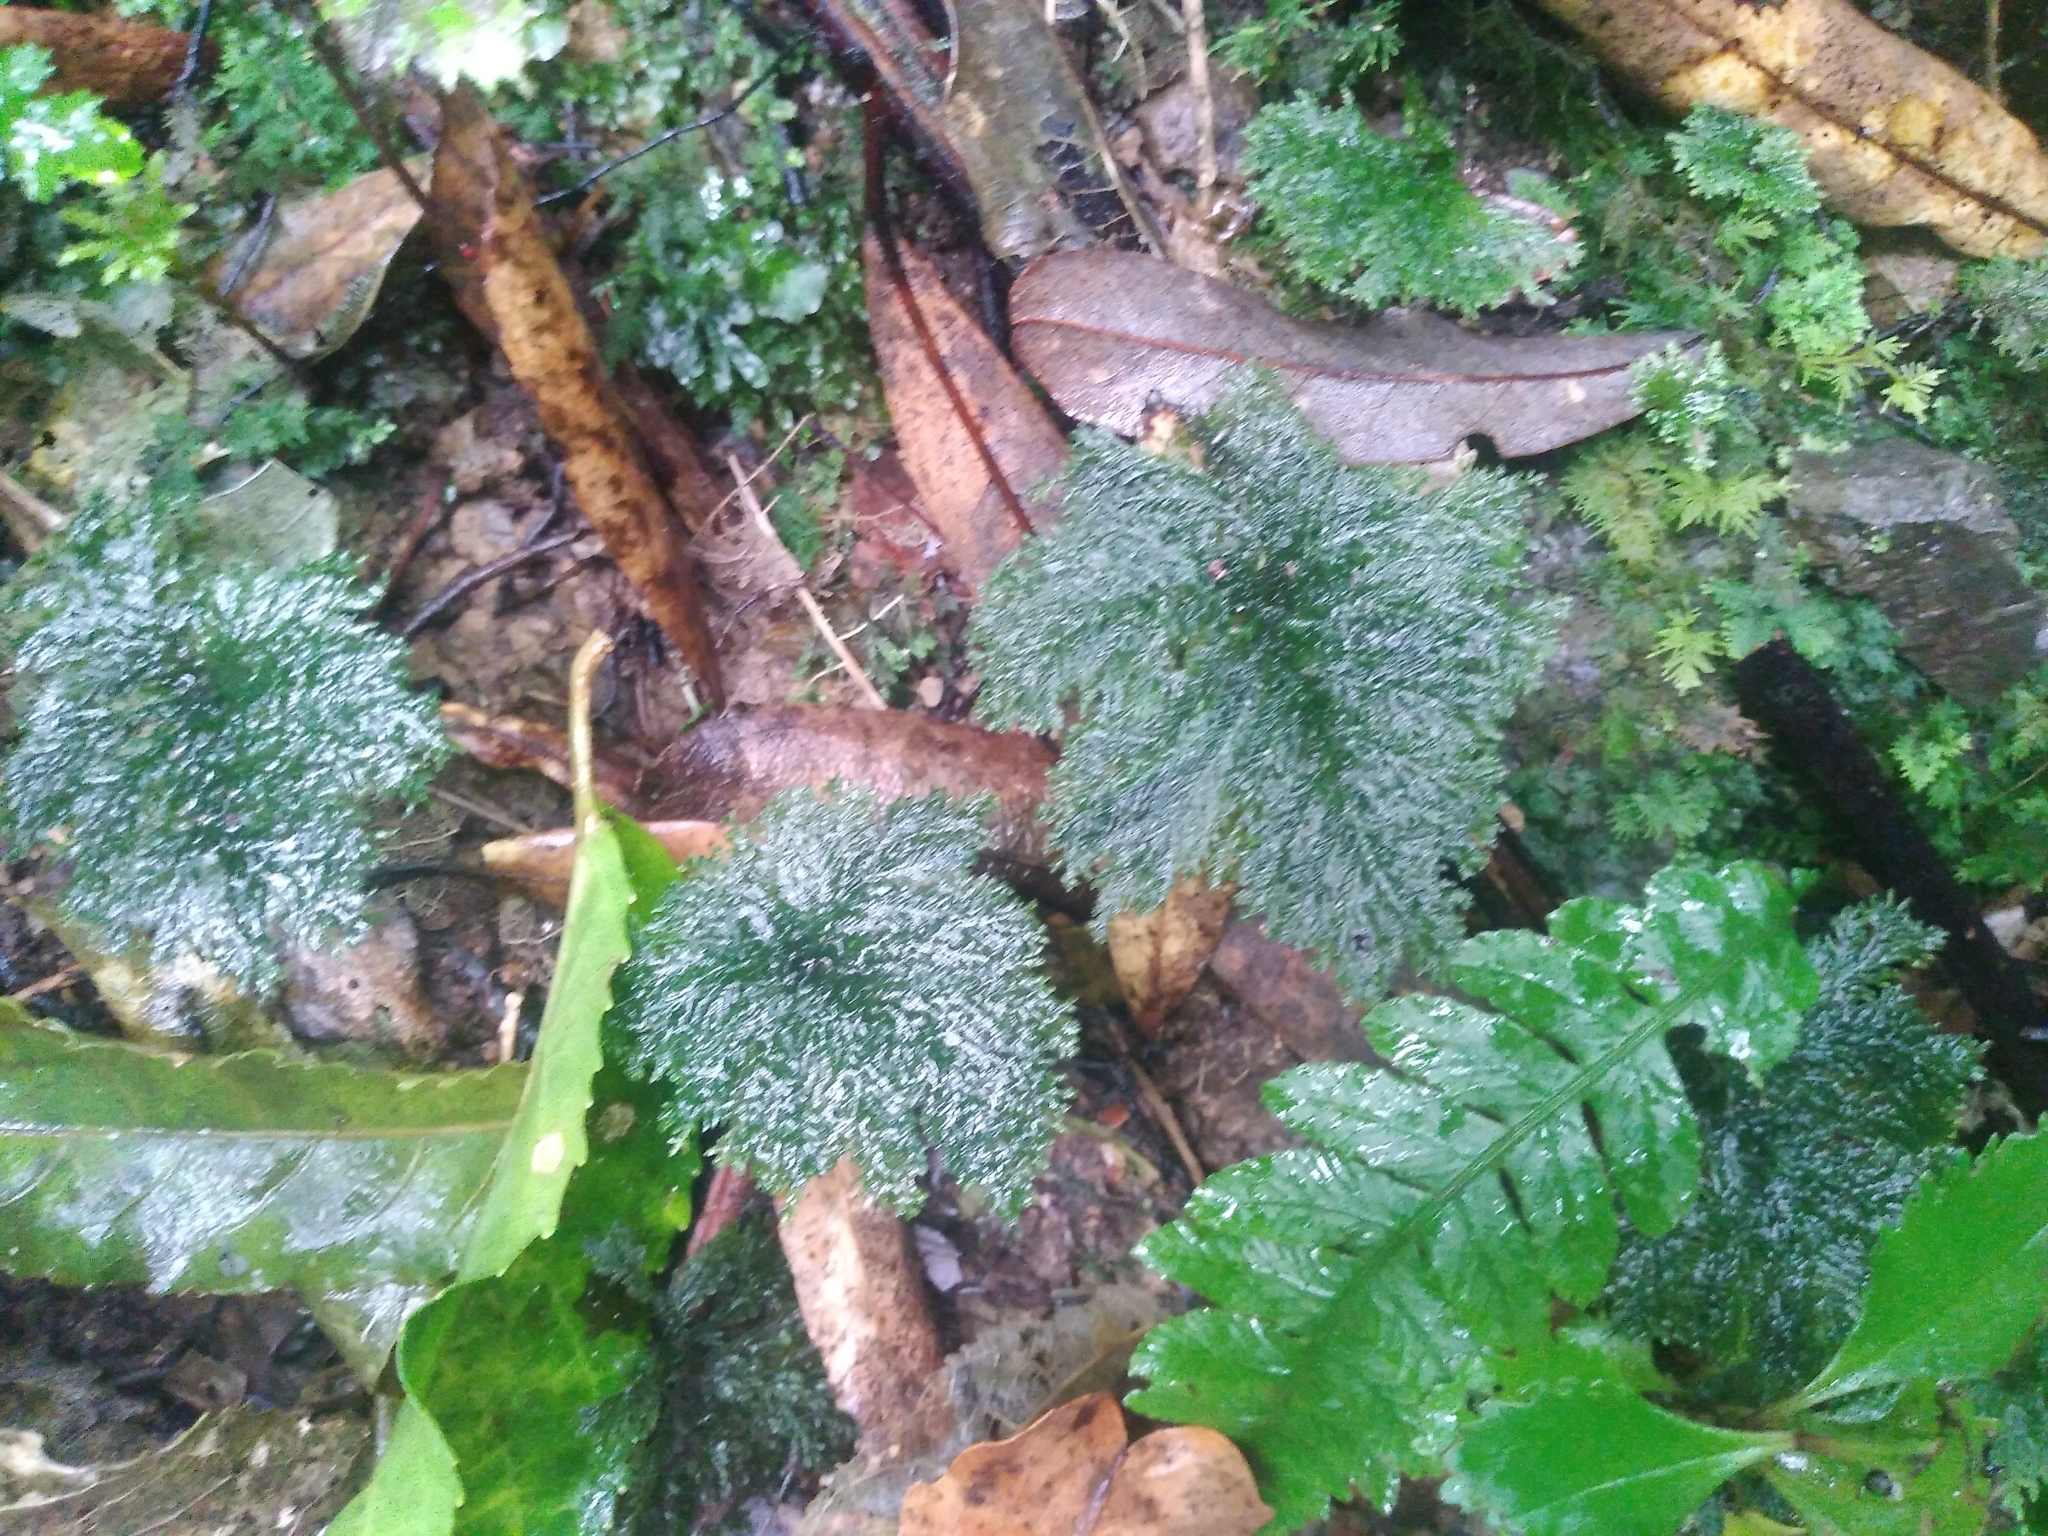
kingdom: Plantae
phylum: Bryophyta
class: Bryopsida
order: Hypopterygiales
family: Hypopterygiaceae
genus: Dendrohypopterygium
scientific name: Dendrohypopterygium filiculiforme
